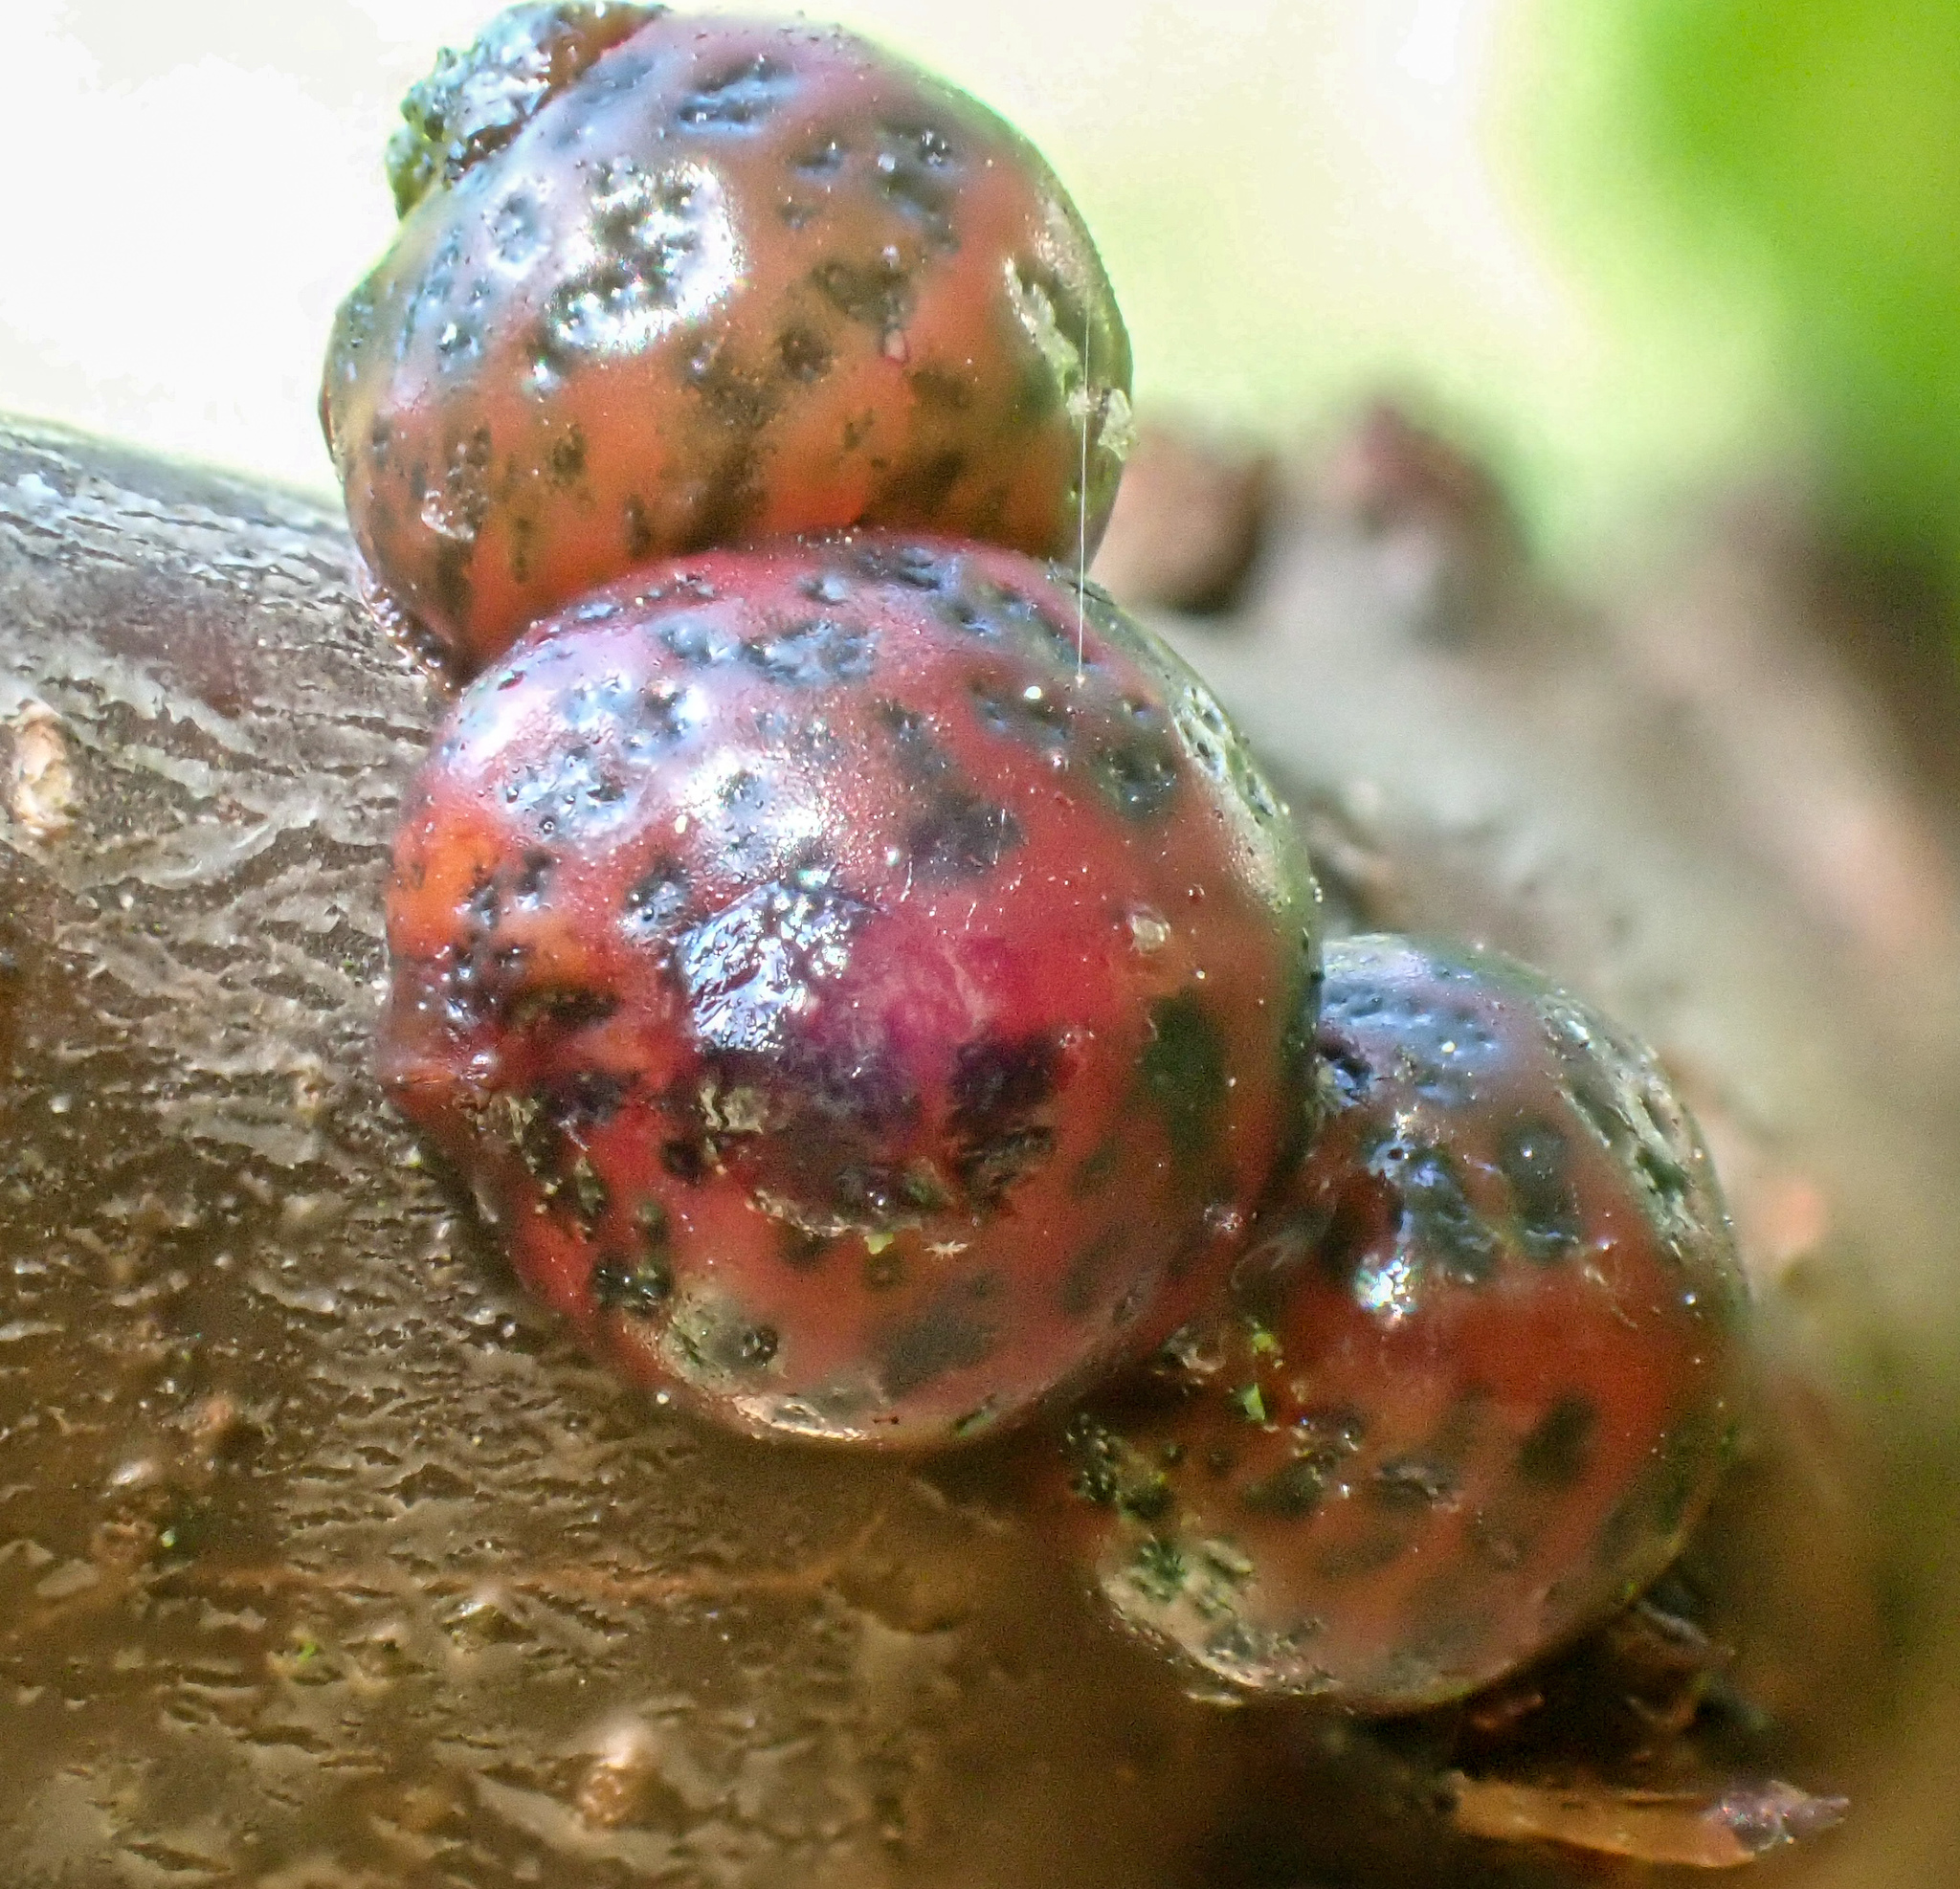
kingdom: Animalia
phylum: Arthropoda
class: Insecta
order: Hemiptera
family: Coccidae
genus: Eulecanium
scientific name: Eulecanium kunoense
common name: Kuno scale
